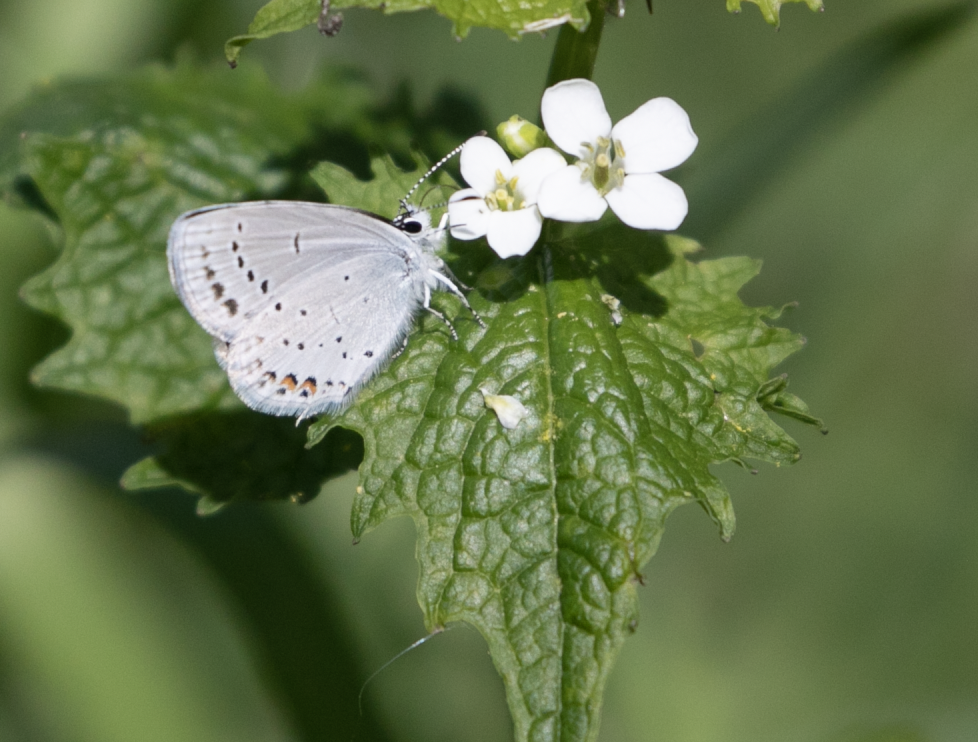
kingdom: Animalia
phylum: Arthropoda
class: Insecta
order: Lepidoptera
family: Lycaenidae
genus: Elkalyce
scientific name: Elkalyce argiades
